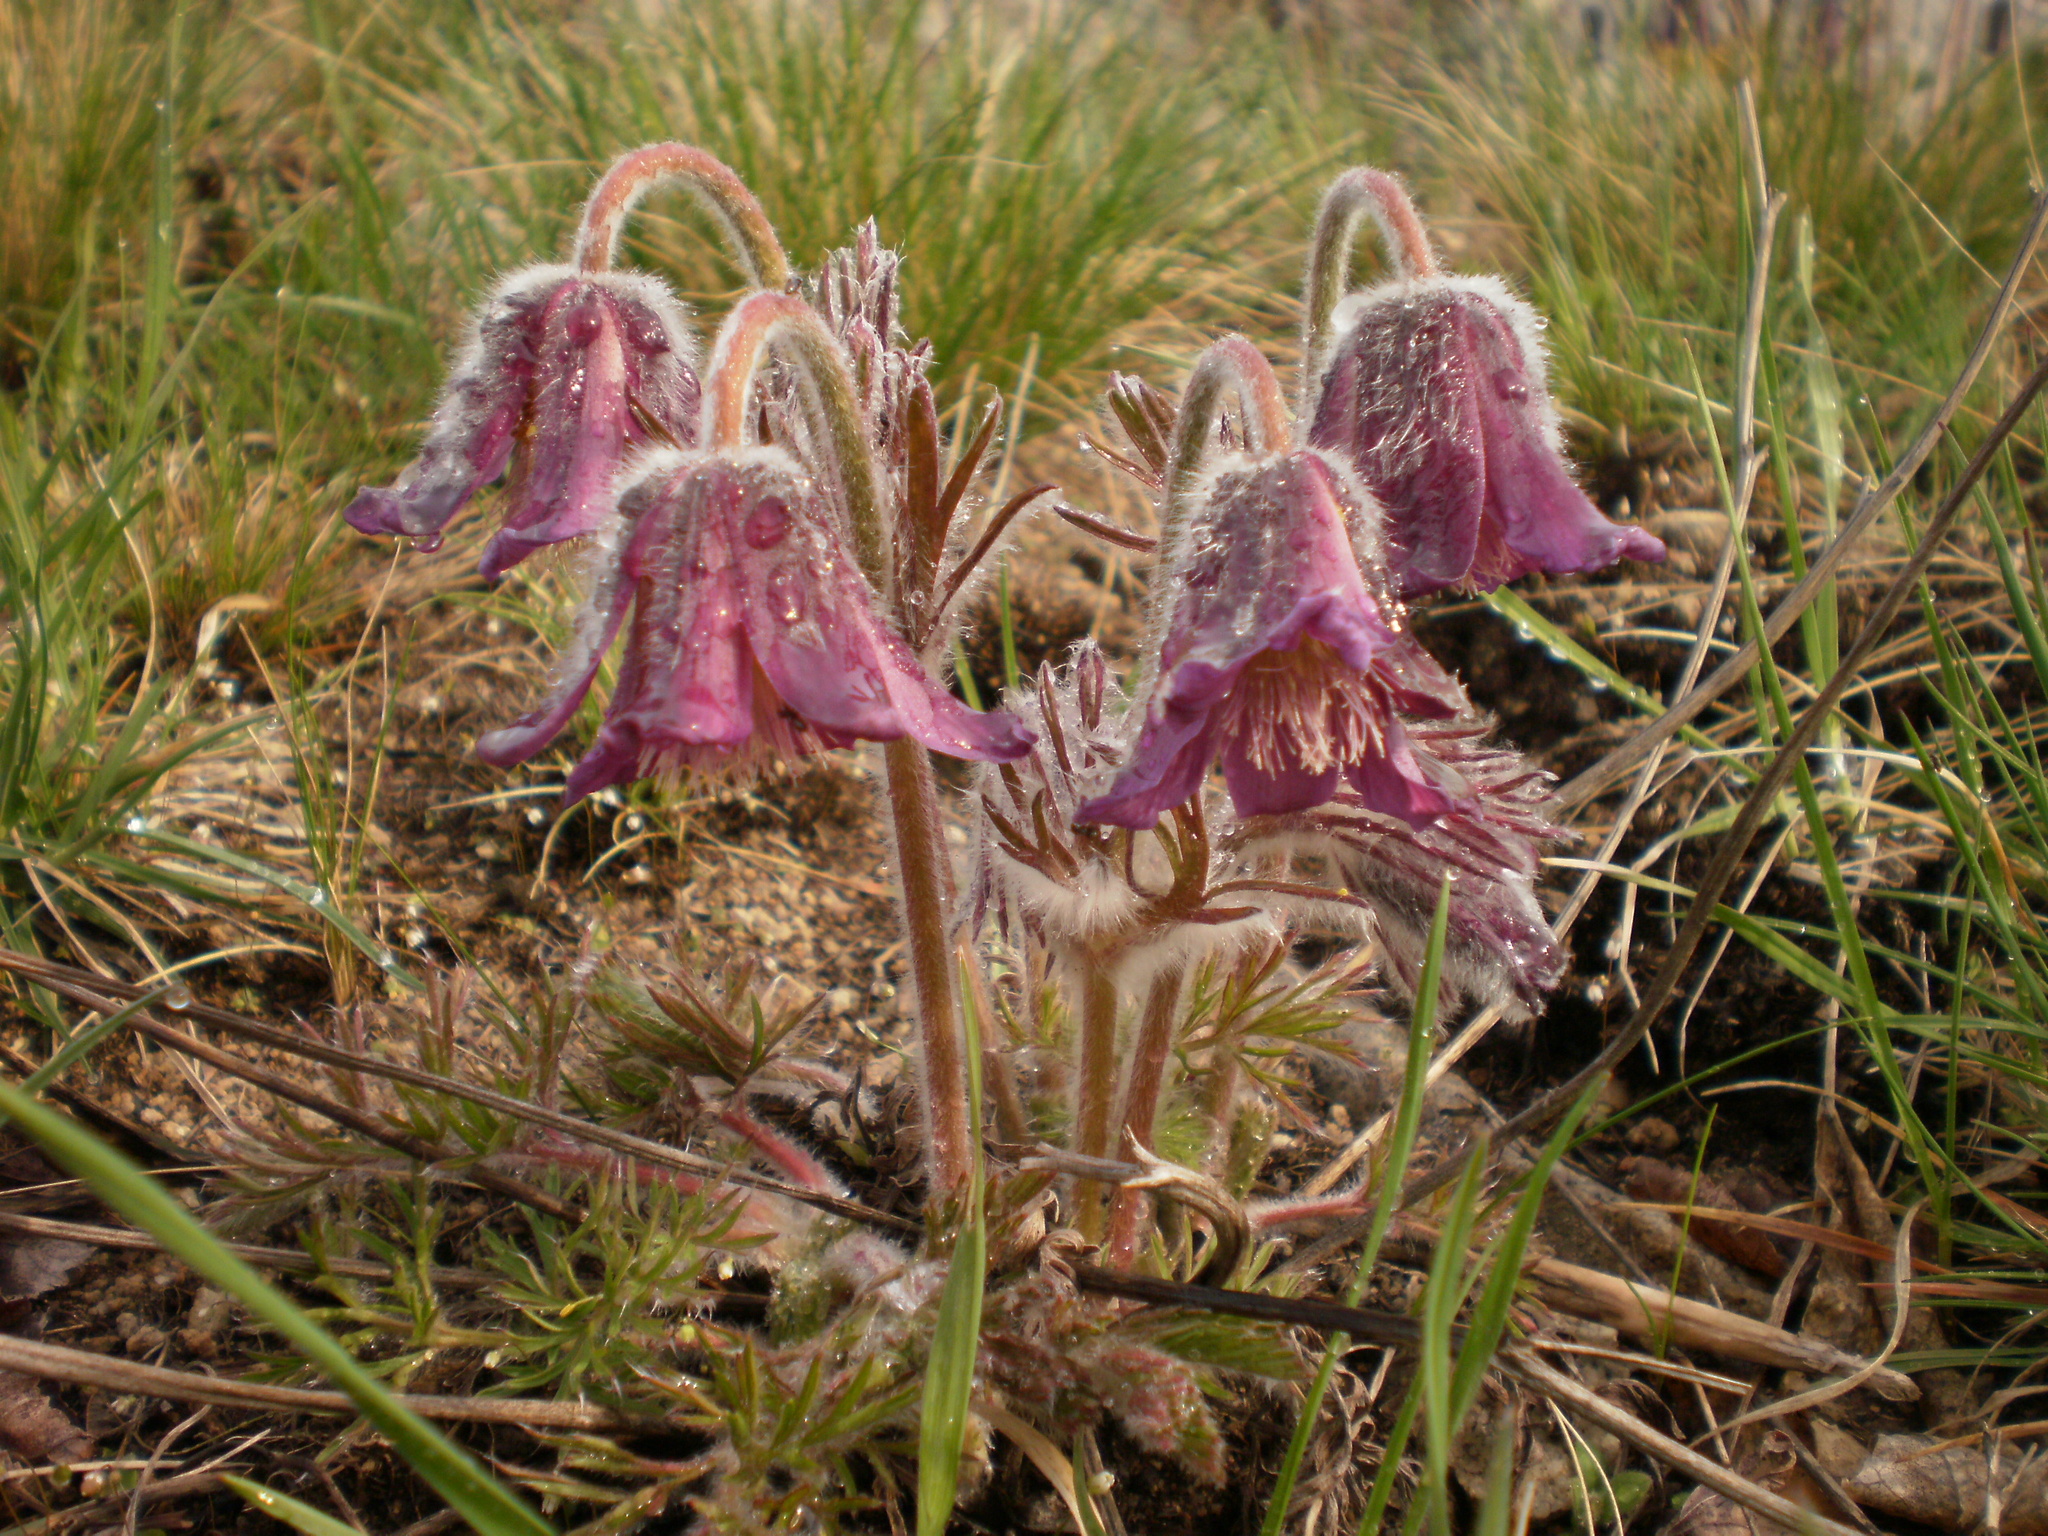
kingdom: Plantae
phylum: Tracheophyta
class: Magnoliopsida
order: Ranunculales
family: Ranunculaceae
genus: Pulsatilla
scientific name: Pulsatilla pratensis
